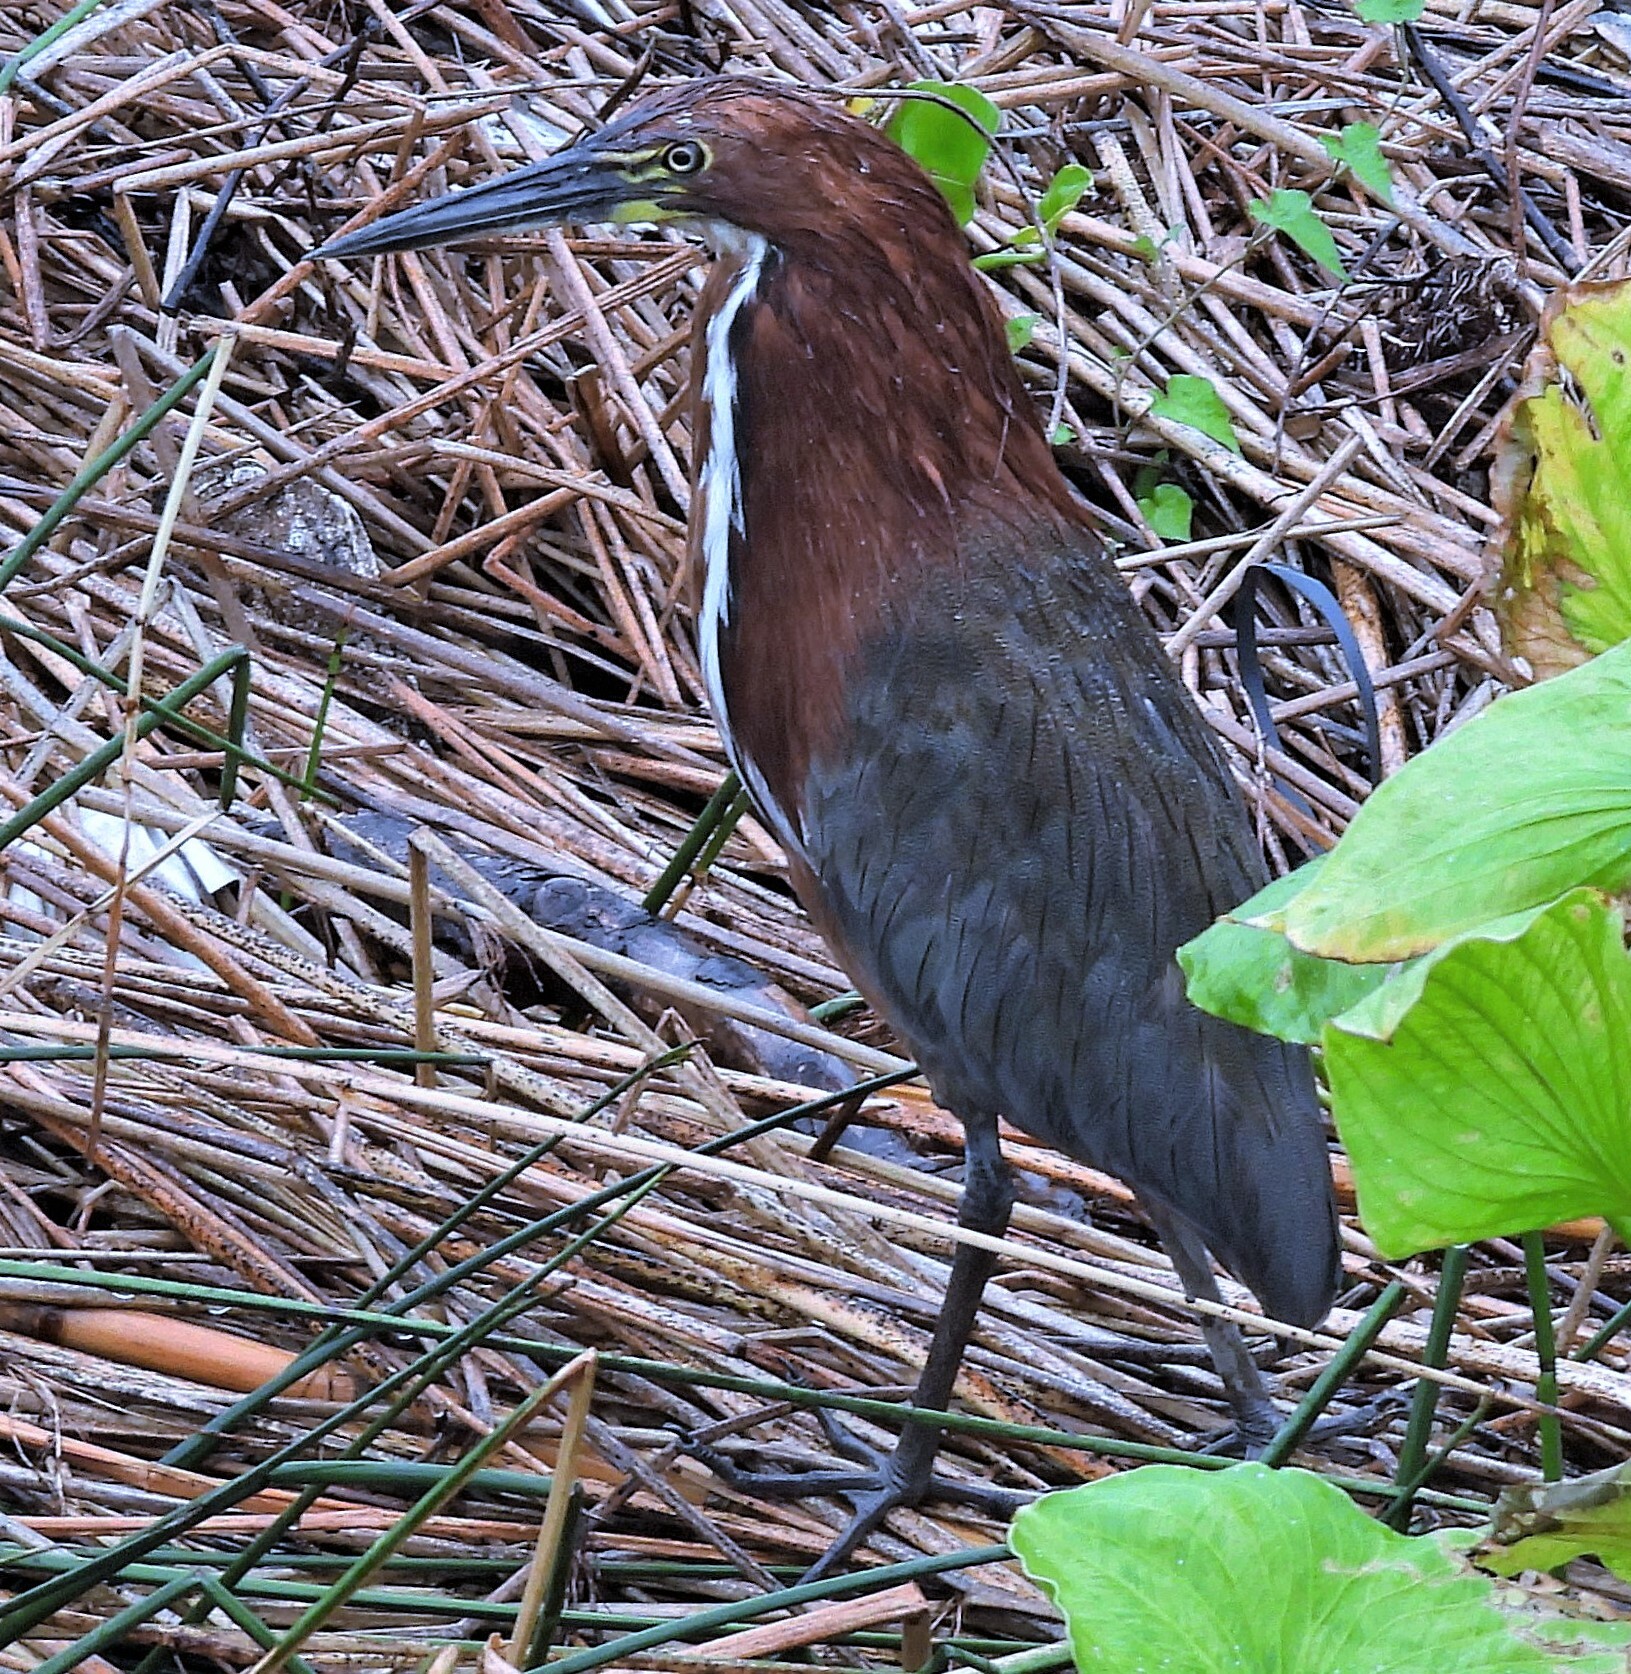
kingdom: Animalia
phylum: Chordata
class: Aves
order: Pelecaniformes
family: Ardeidae
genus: Tigrisoma
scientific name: Tigrisoma lineatum
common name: Rufescent tiger-heron
